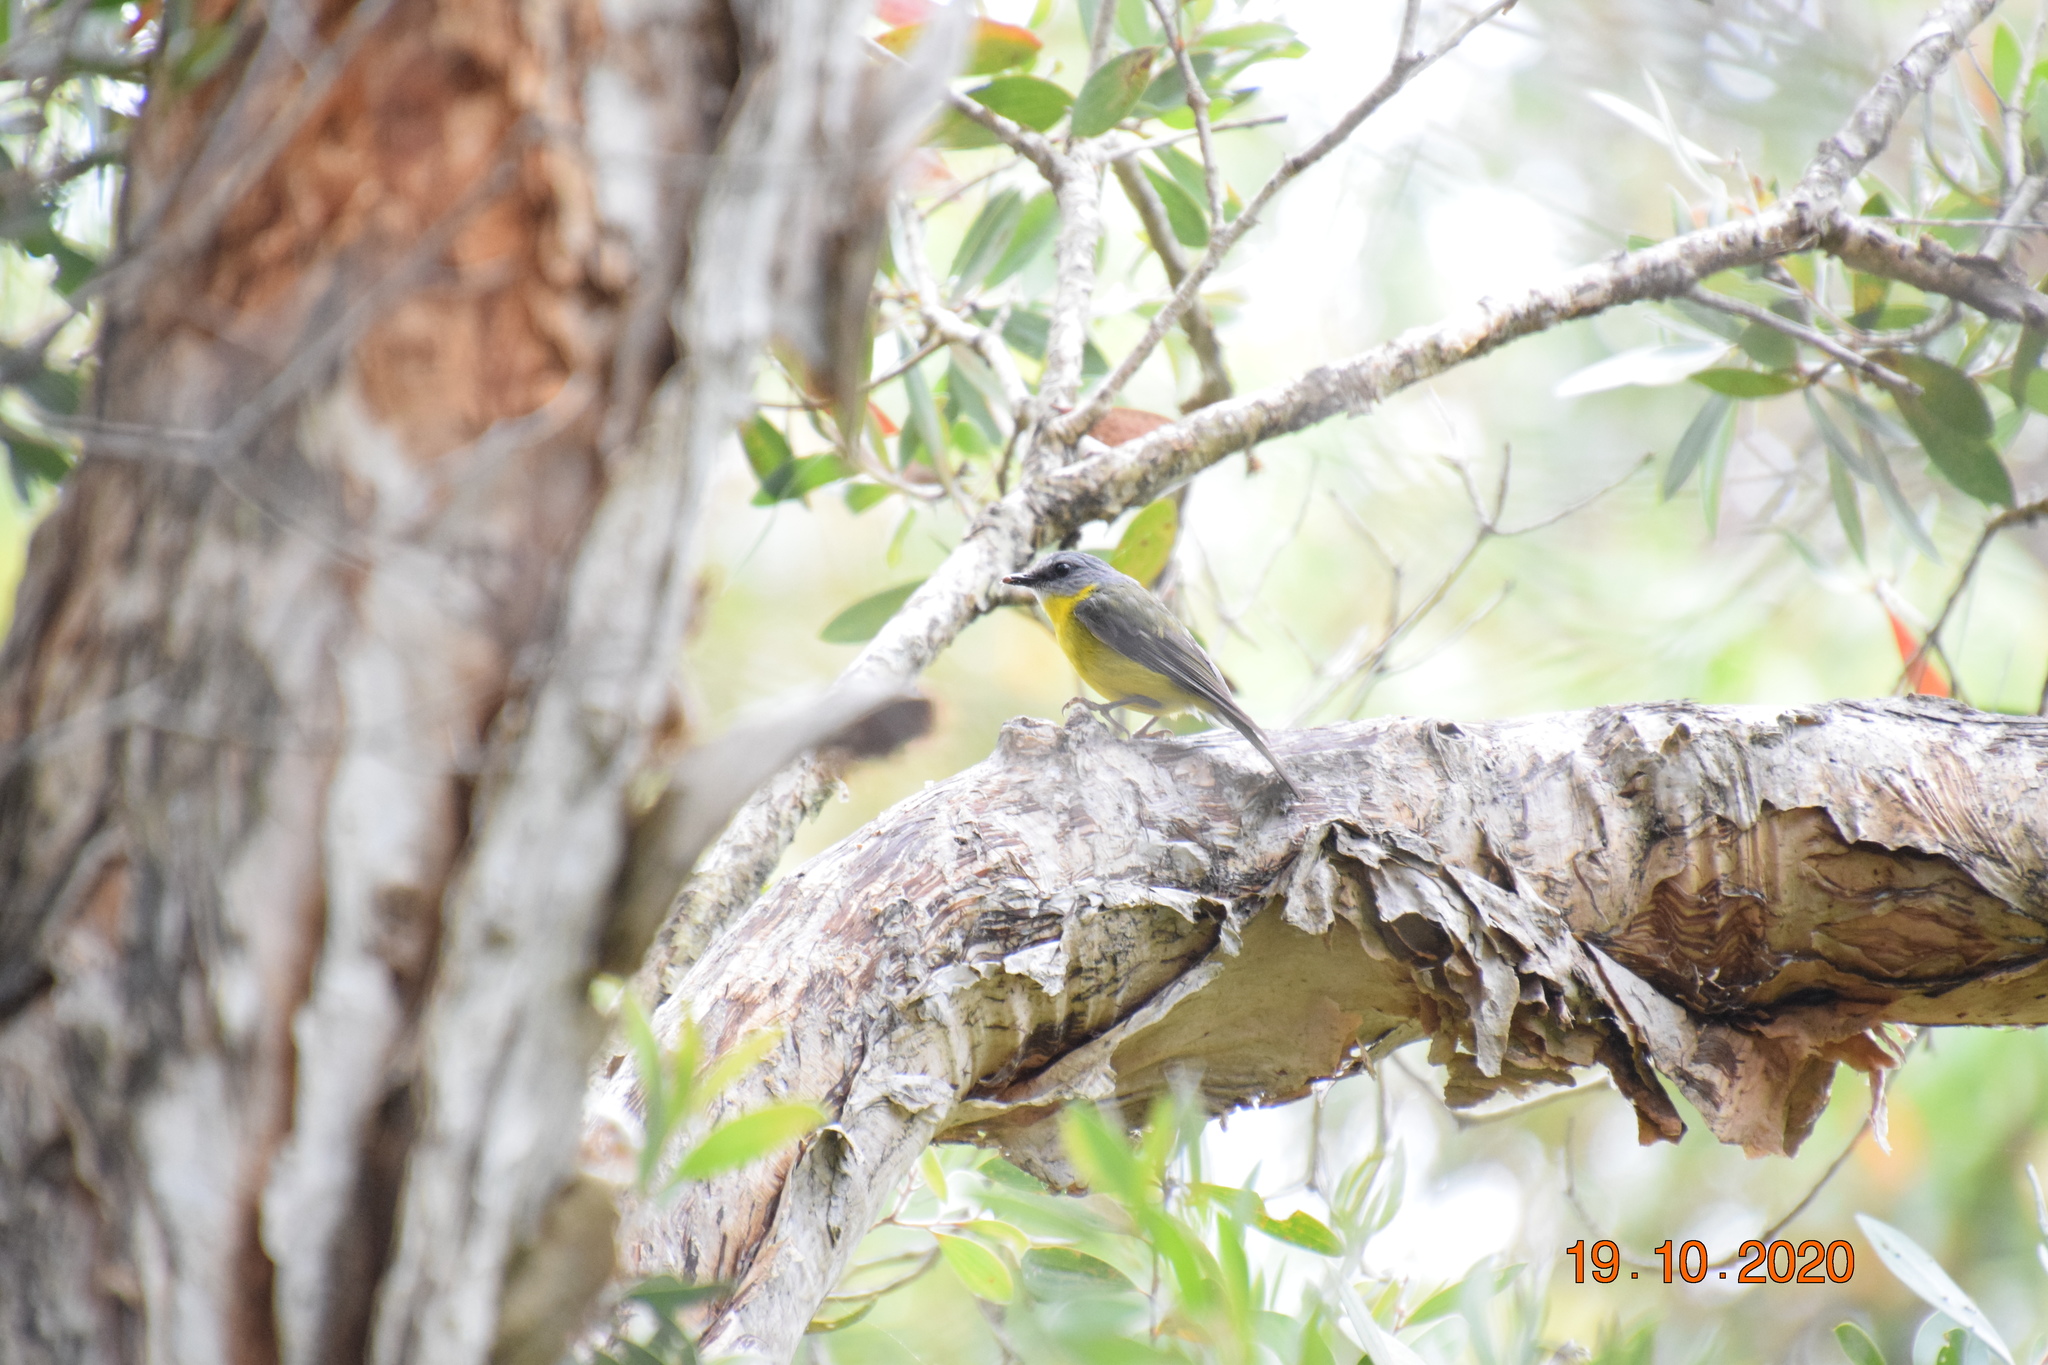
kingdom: Animalia
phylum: Chordata
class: Aves
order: Passeriformes
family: Petroicidae
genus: Eopsaltria
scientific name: Eopsaltria australis
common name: Eastern yellow robin
